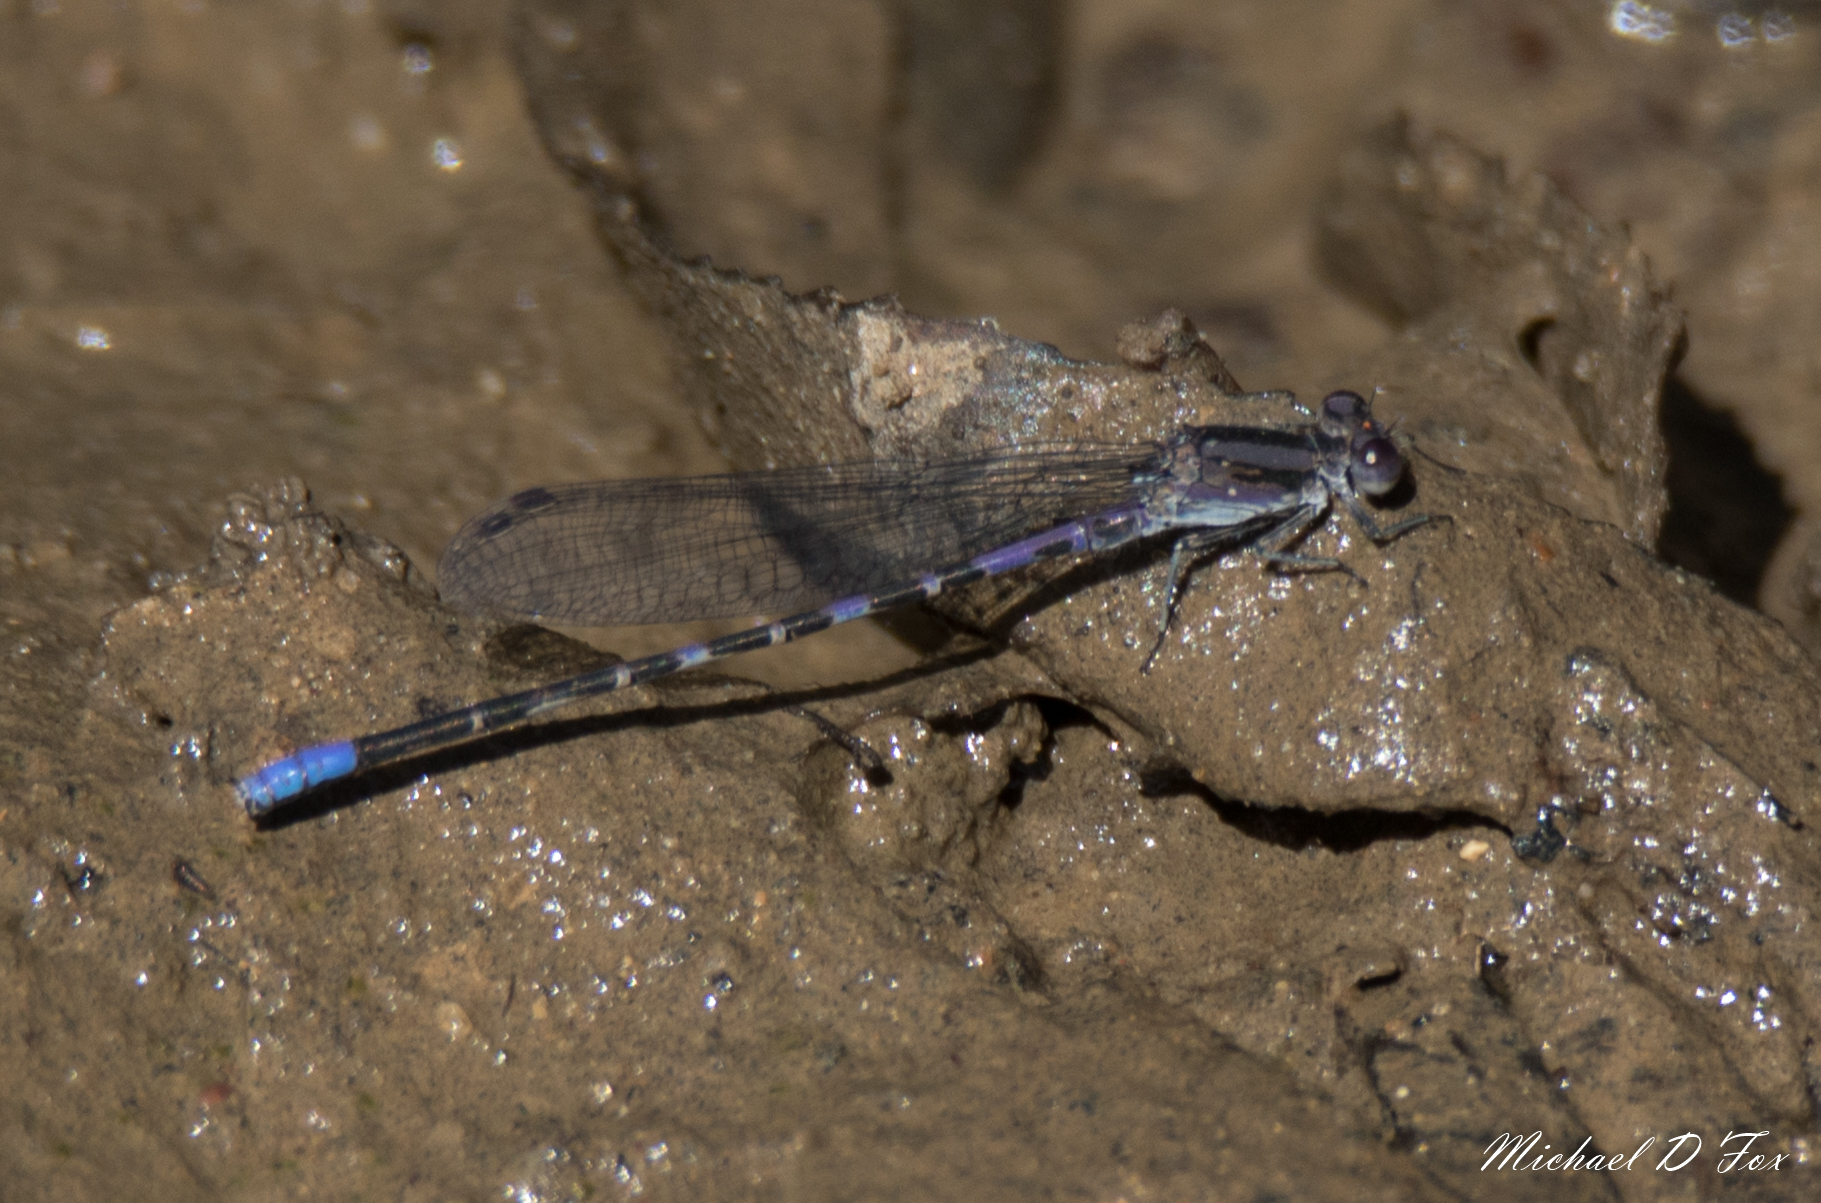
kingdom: Animalia
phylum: Arthropoda
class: Insecta
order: Odonata
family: Coenagrionidae
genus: Argia
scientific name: Argia immunda
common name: Kiowa dancer
